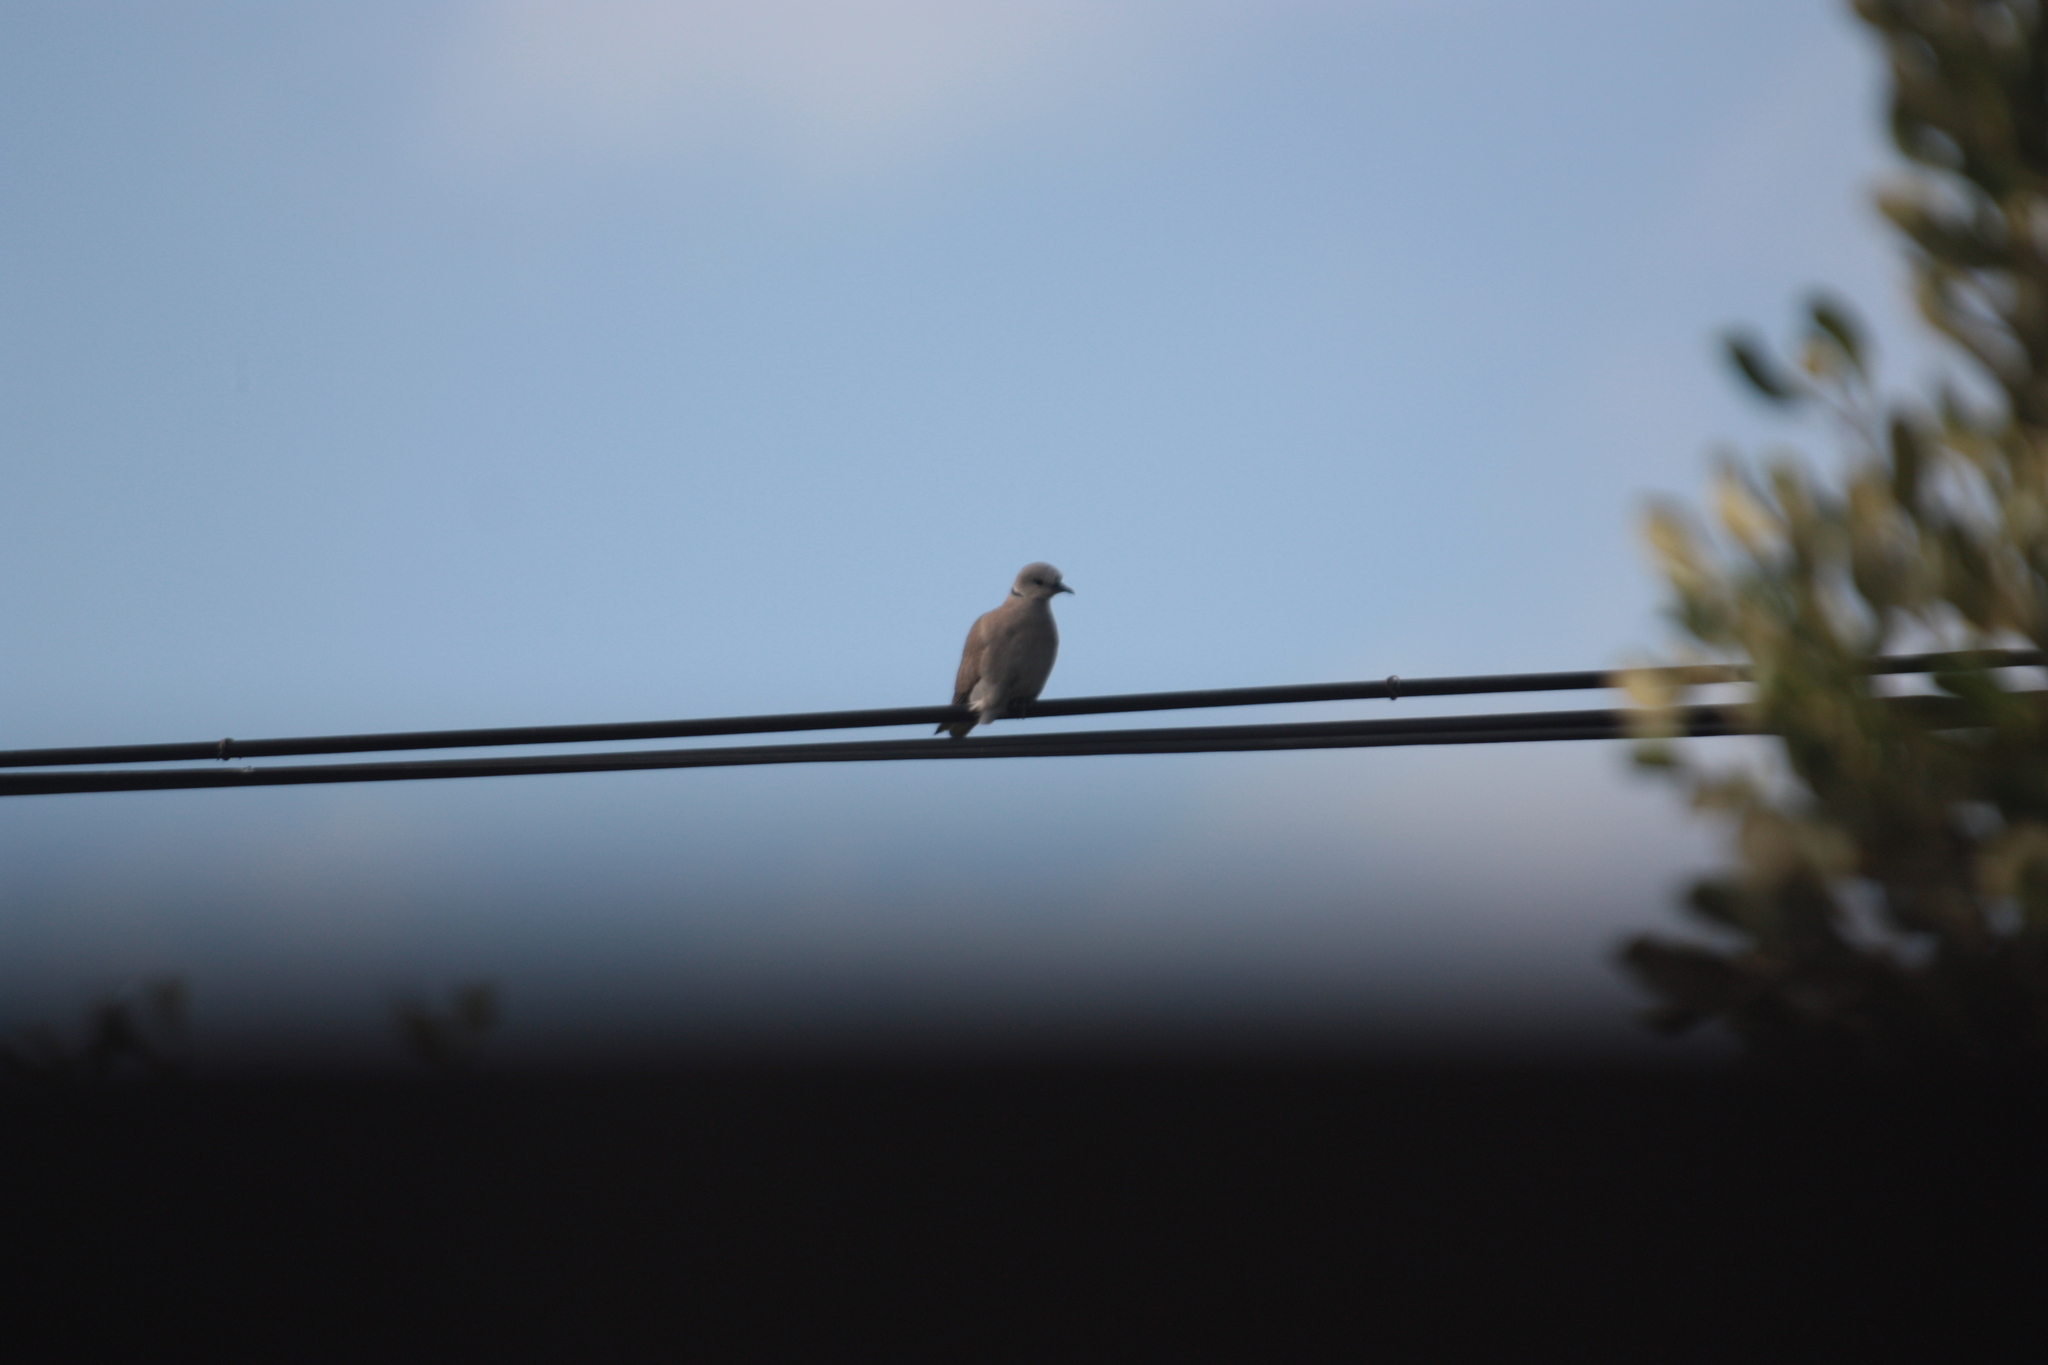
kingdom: Animalia
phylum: Chordata
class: Aves
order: Columbiformes
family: Columbidae
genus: Streptopelia
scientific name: Streptopelia tranquebarica
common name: Red turtle dove
